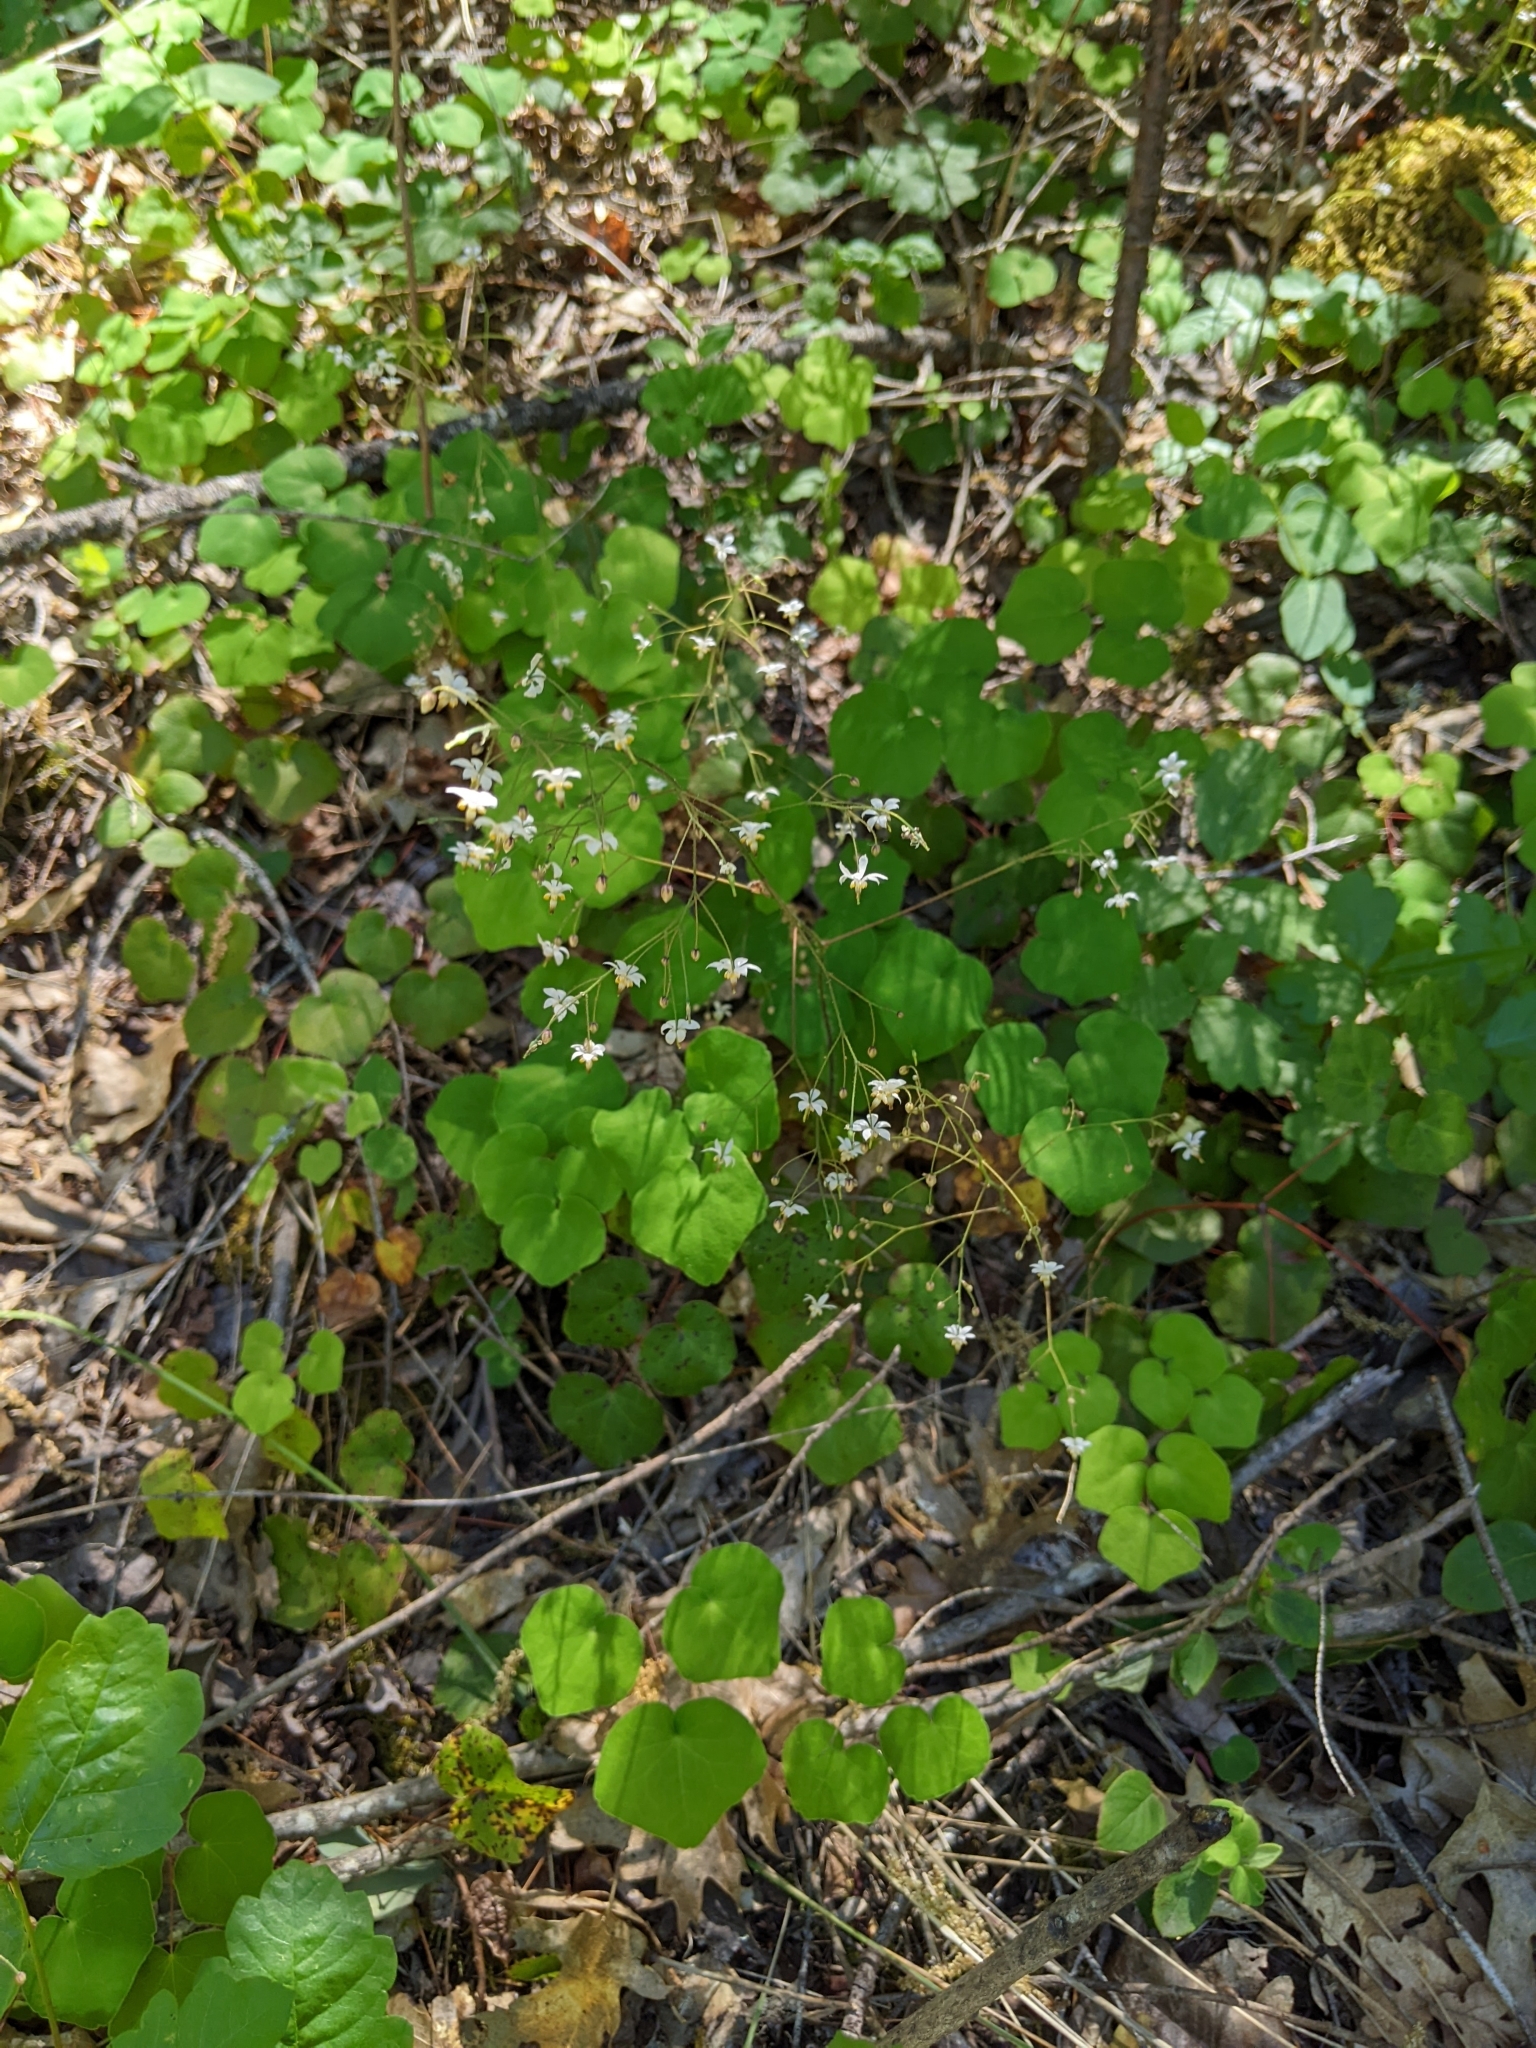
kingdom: Plantae
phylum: Tracheophyta
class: Magnoliopsida
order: Ranunculales
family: Berberidaceae
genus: Vancouveria
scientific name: Vancouveria planipetala
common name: Redwood-ivy
